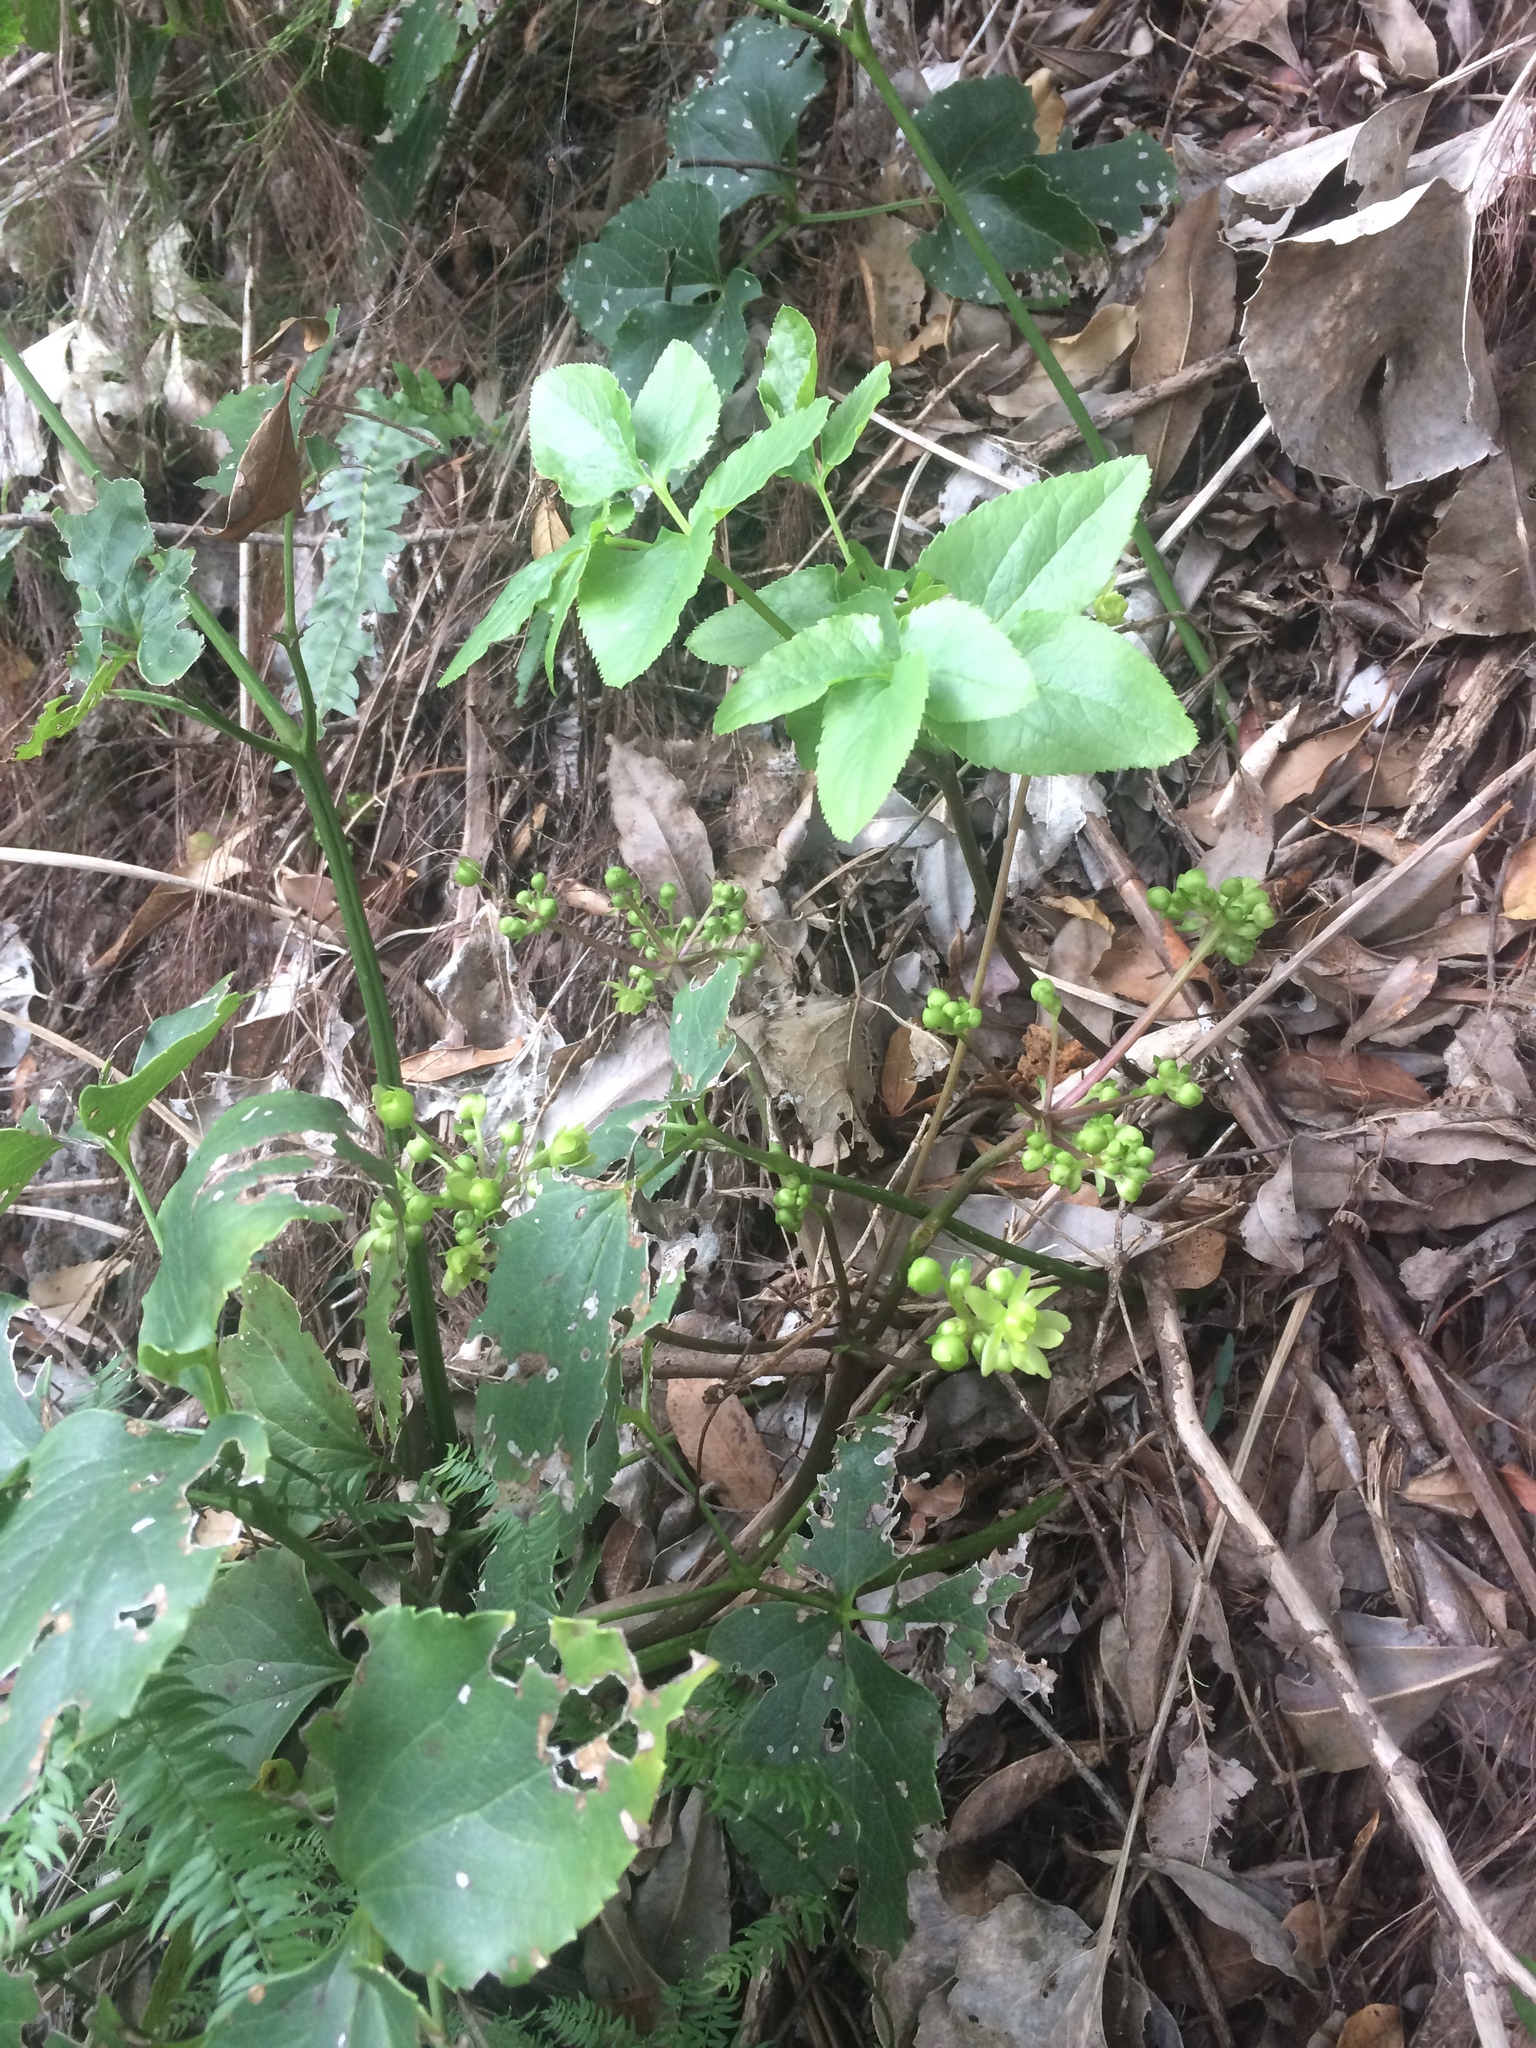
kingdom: Plantae
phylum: Tracheophyta
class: Magnoliopsida
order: Ranunculales
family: Ranunculaceae
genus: Knowltonia
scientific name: Knowltonia vesicatoria
